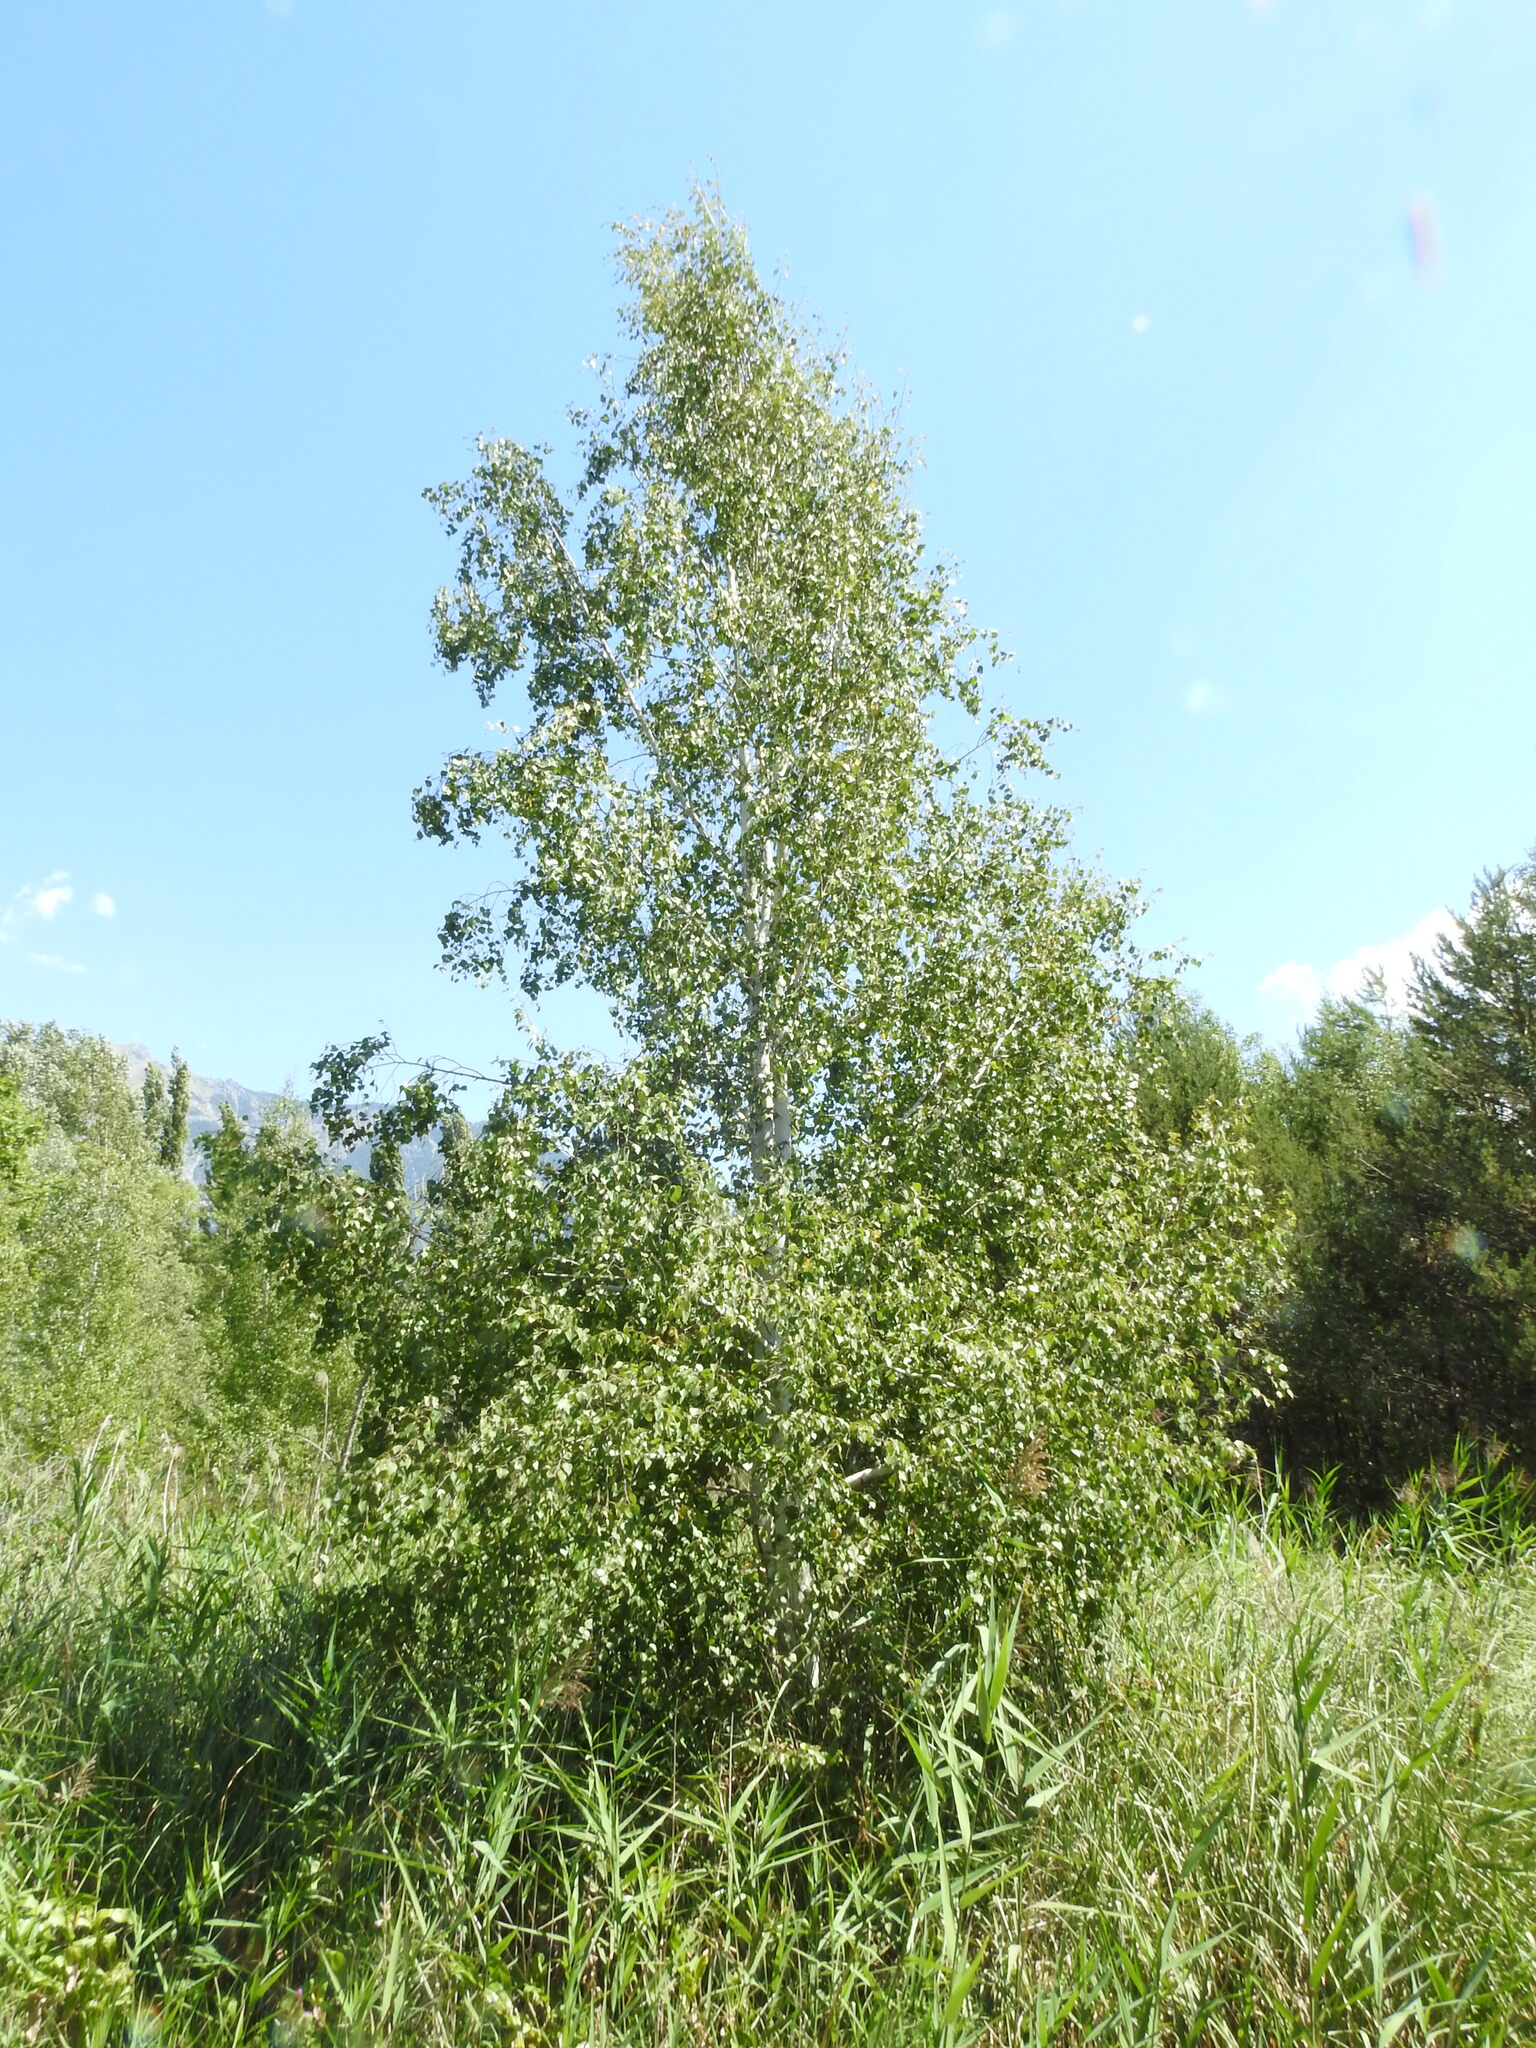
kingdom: Plantae
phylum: Tracheophyta
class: Magnoliopsida
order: Fagales
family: Betulaceae
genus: Betula
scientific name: Betula pendula
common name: Silver birch
